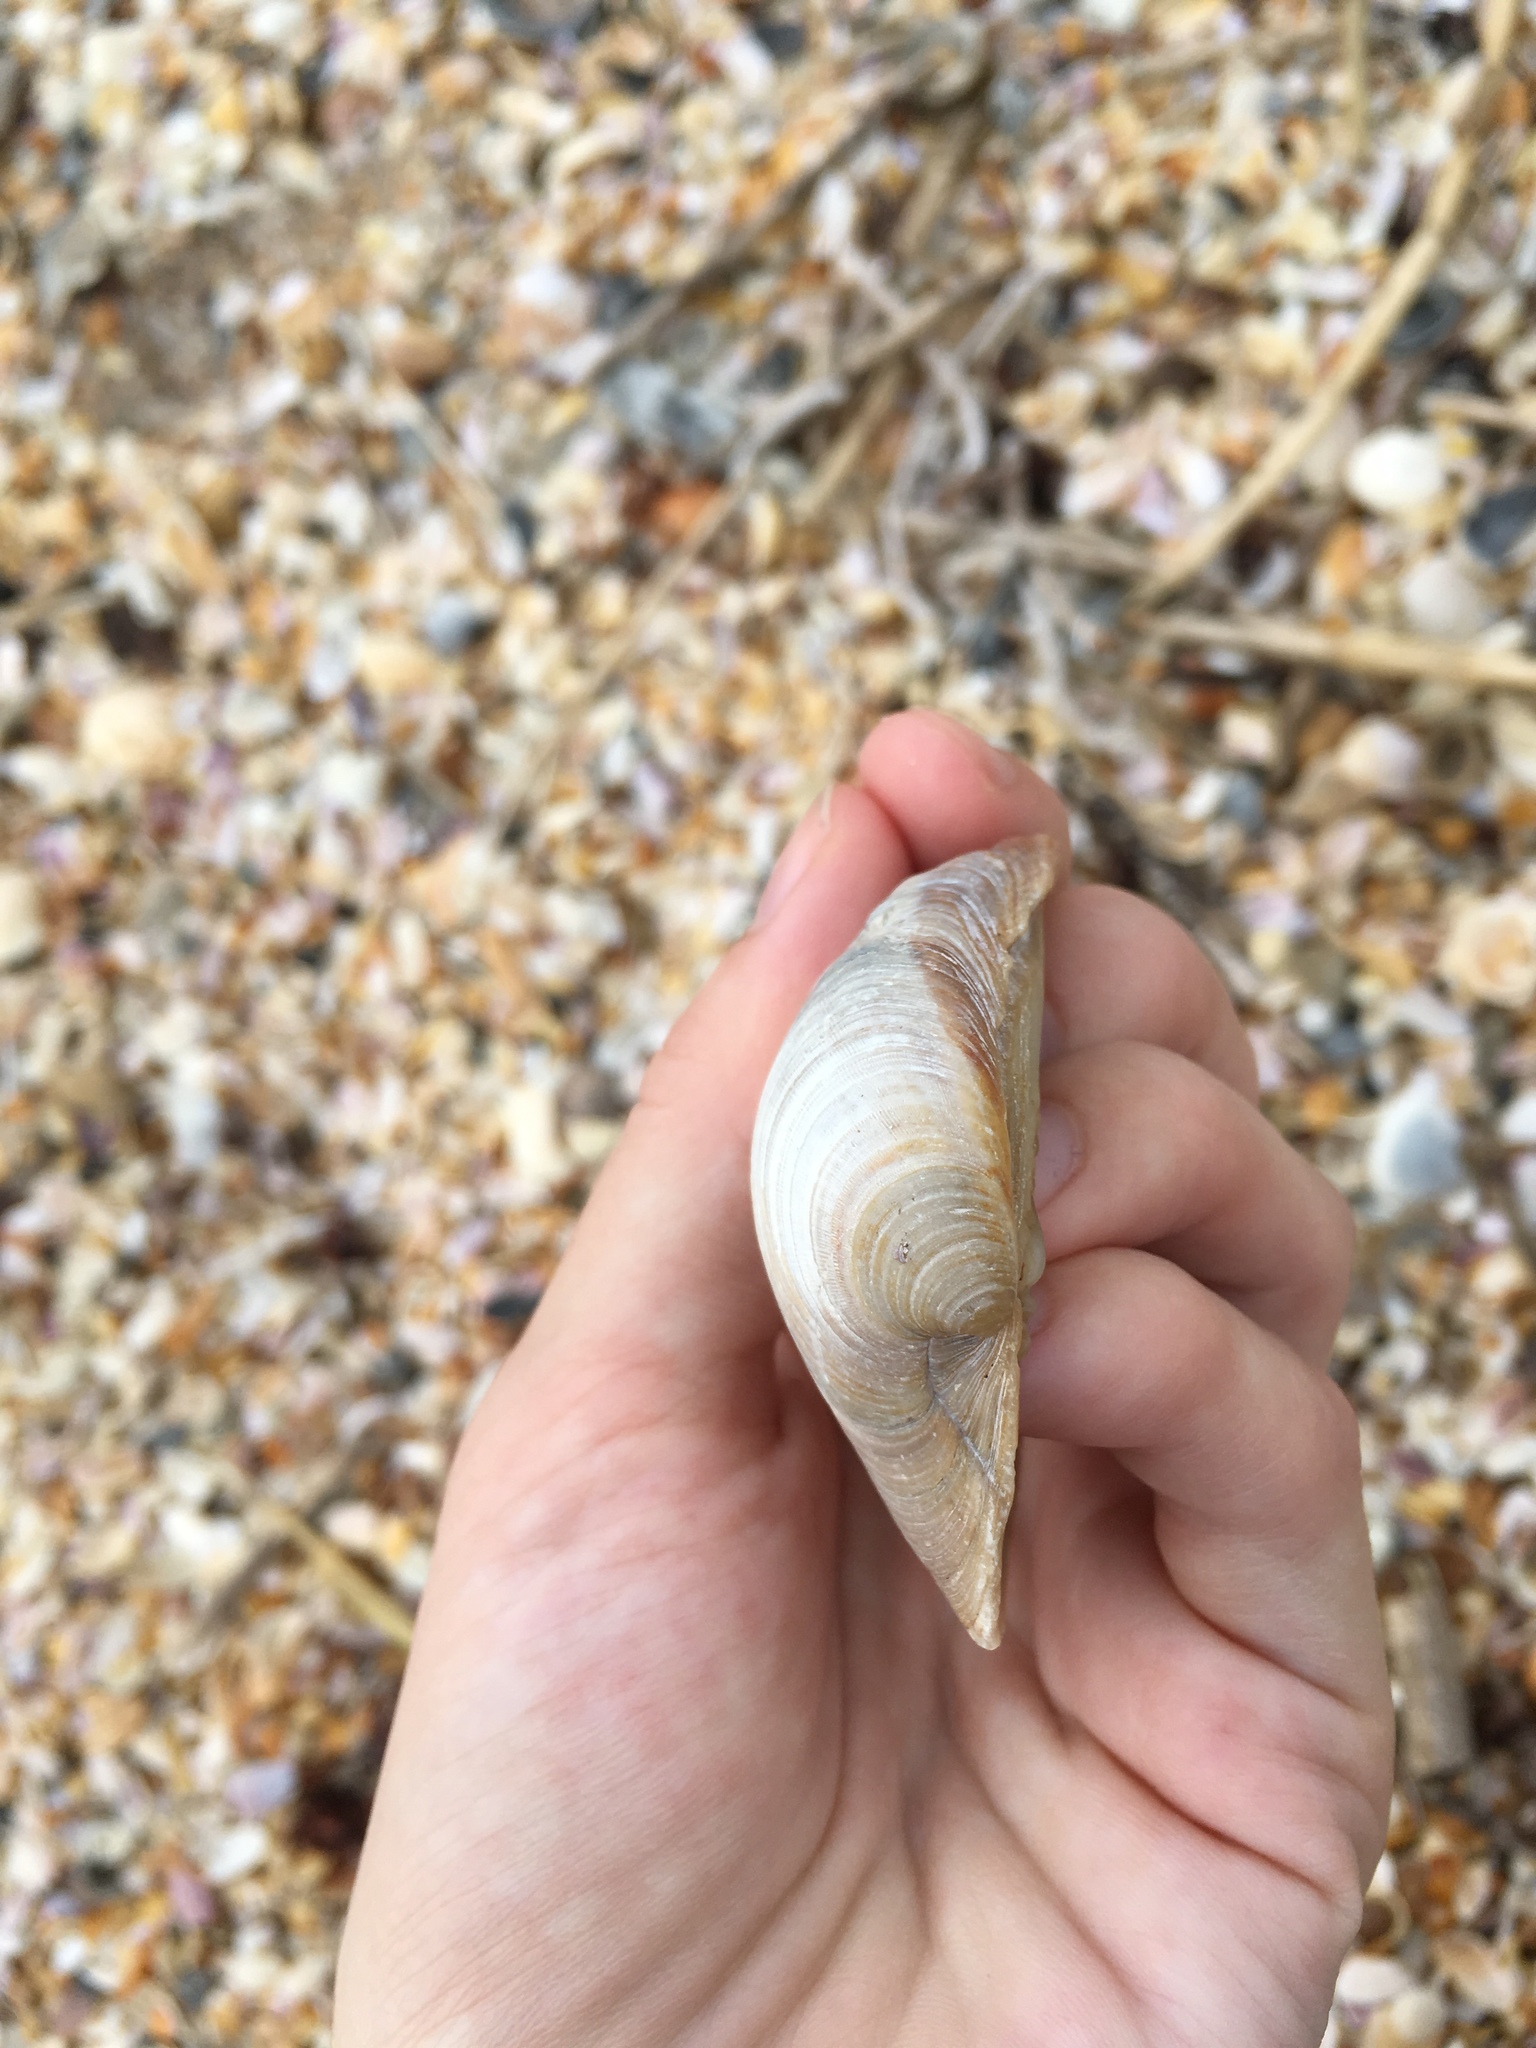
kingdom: Animalia
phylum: Mollusca
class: Bivalvia
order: Venerida
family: Veneridae
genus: Mercenaria
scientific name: Mercenaria campechiensis
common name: Südliche quahog-muschel
